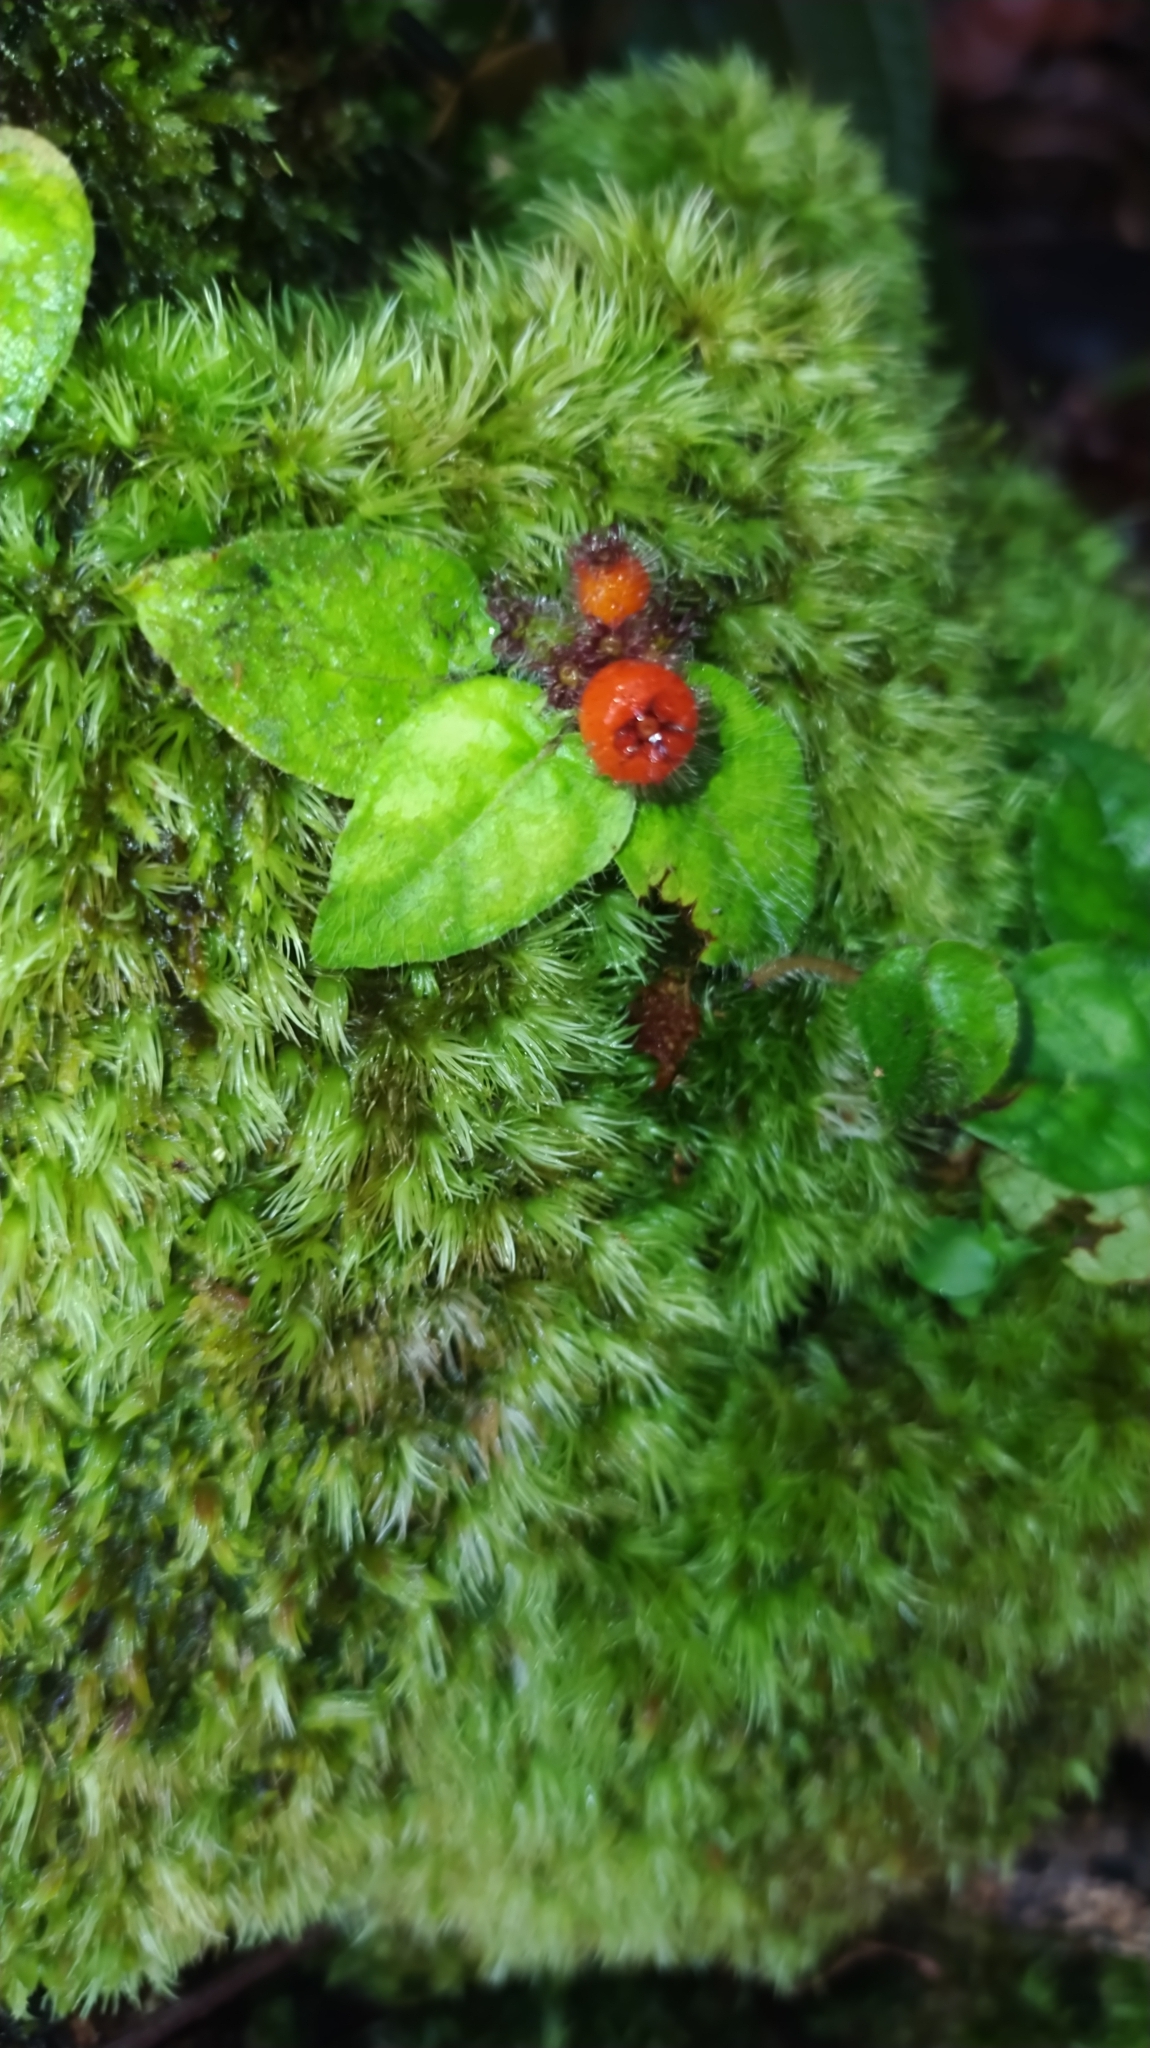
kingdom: Plantae
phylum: Tracheophyta
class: Magnoliopsida
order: Gentianales
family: Rubiaceae
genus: Geophila
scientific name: Geophila cordifolia
